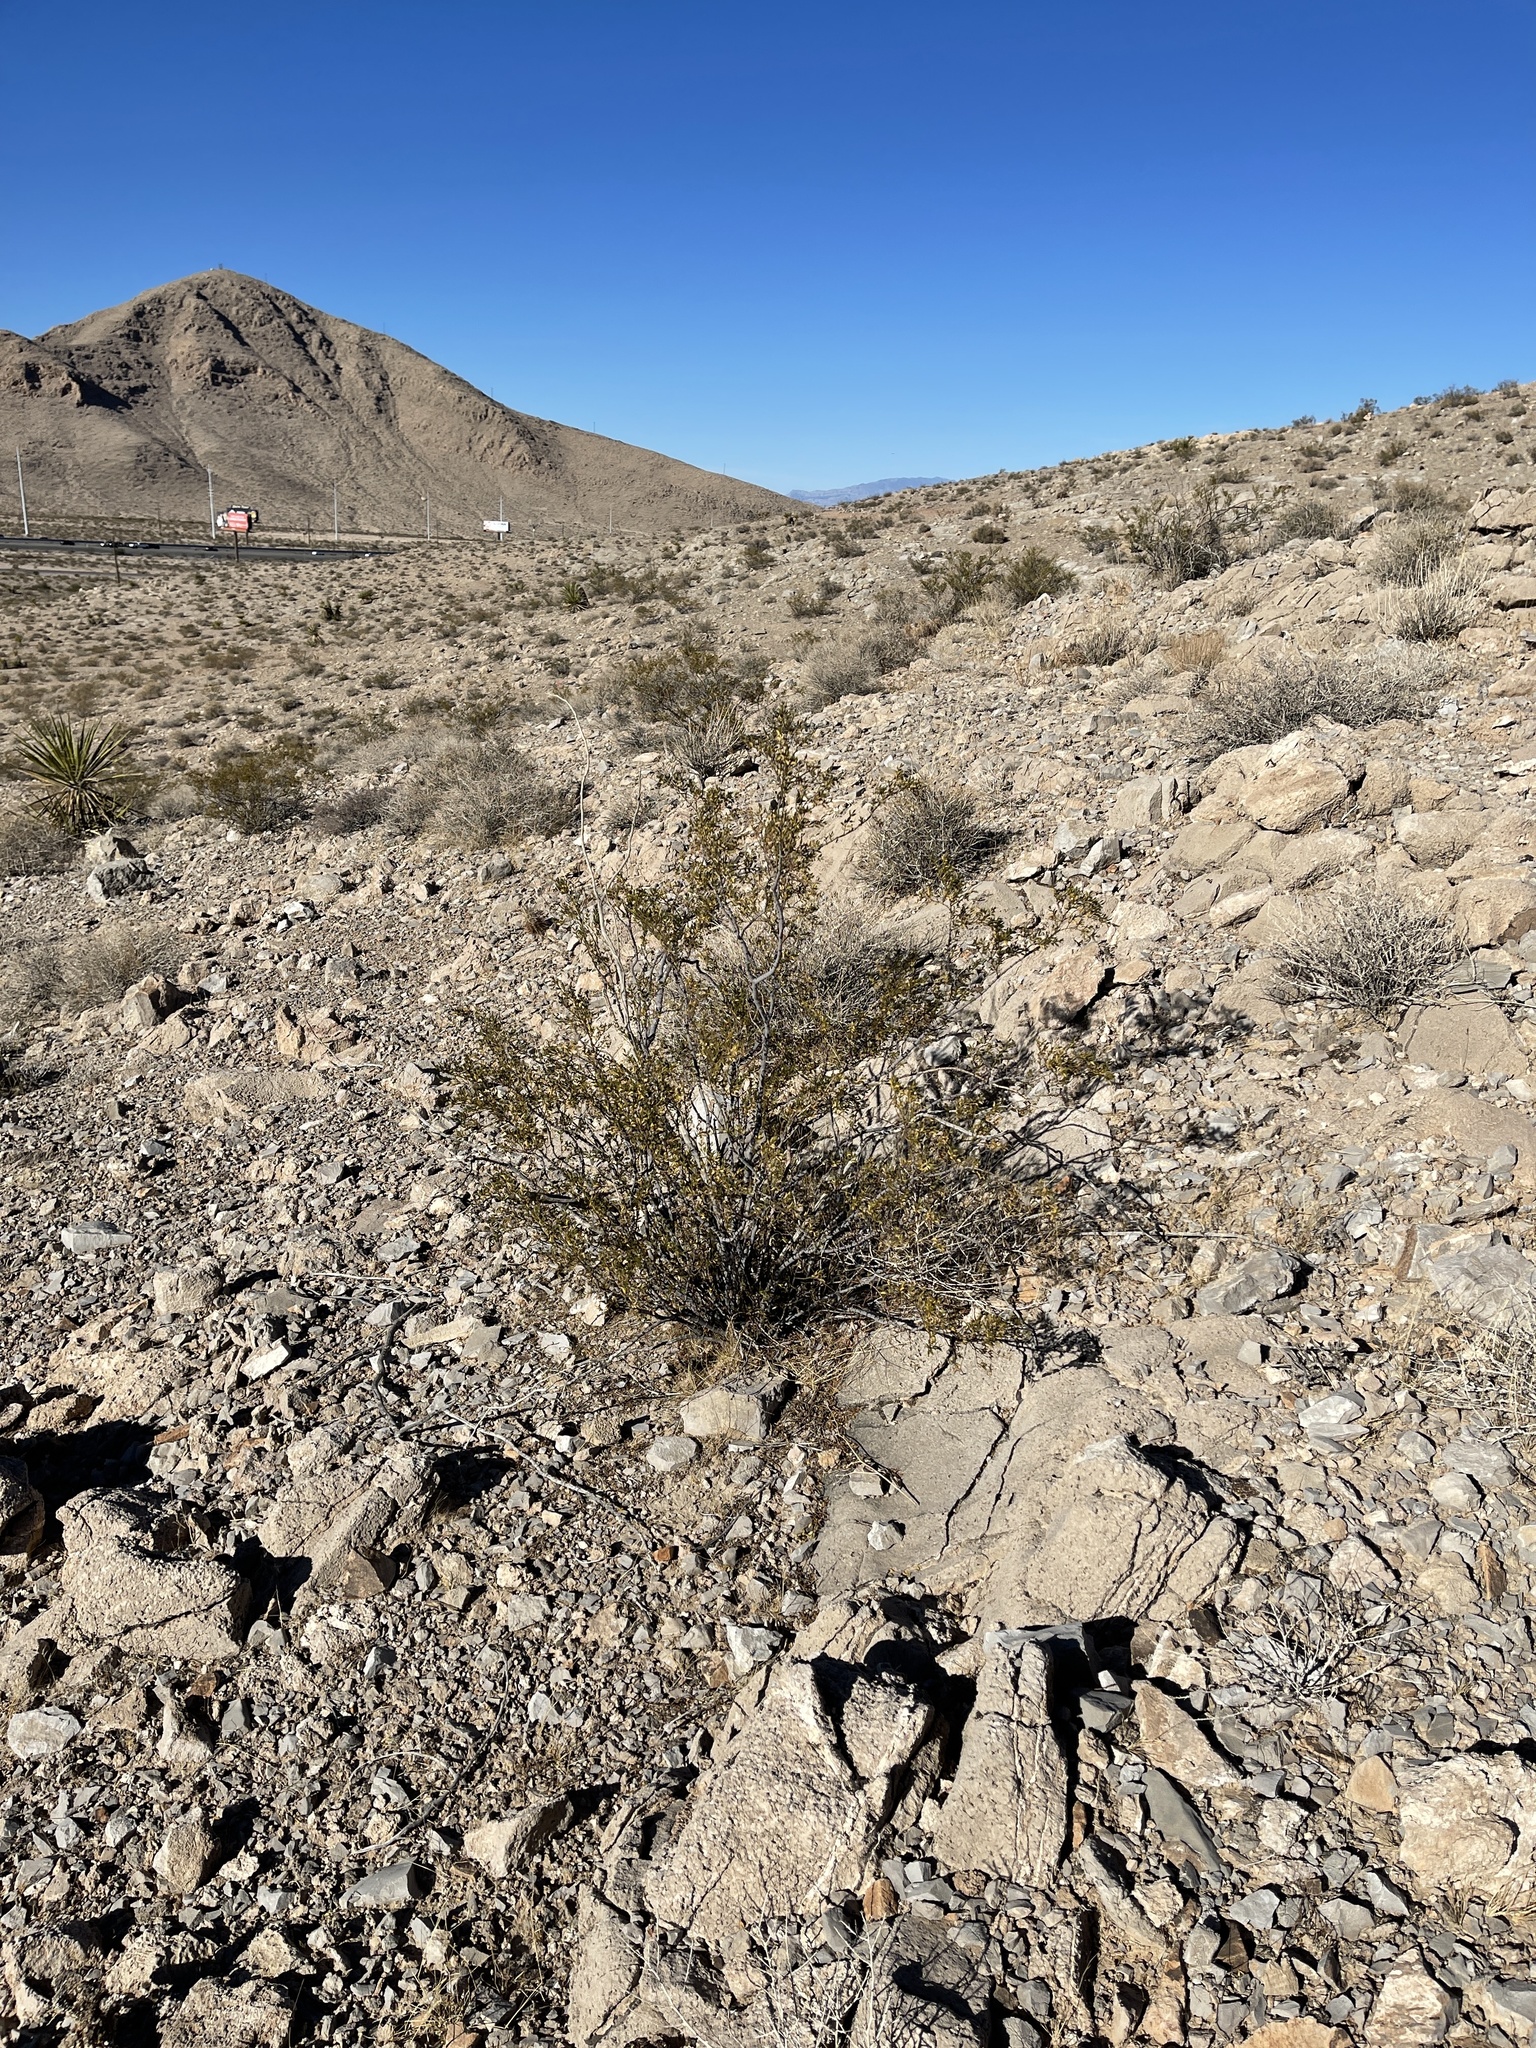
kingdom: Plantae
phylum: Tracheophyta
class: Magnoliopsida
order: Zygophyllales
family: Zygophyllaceae
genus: Larrea
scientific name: Larrea tridentata
